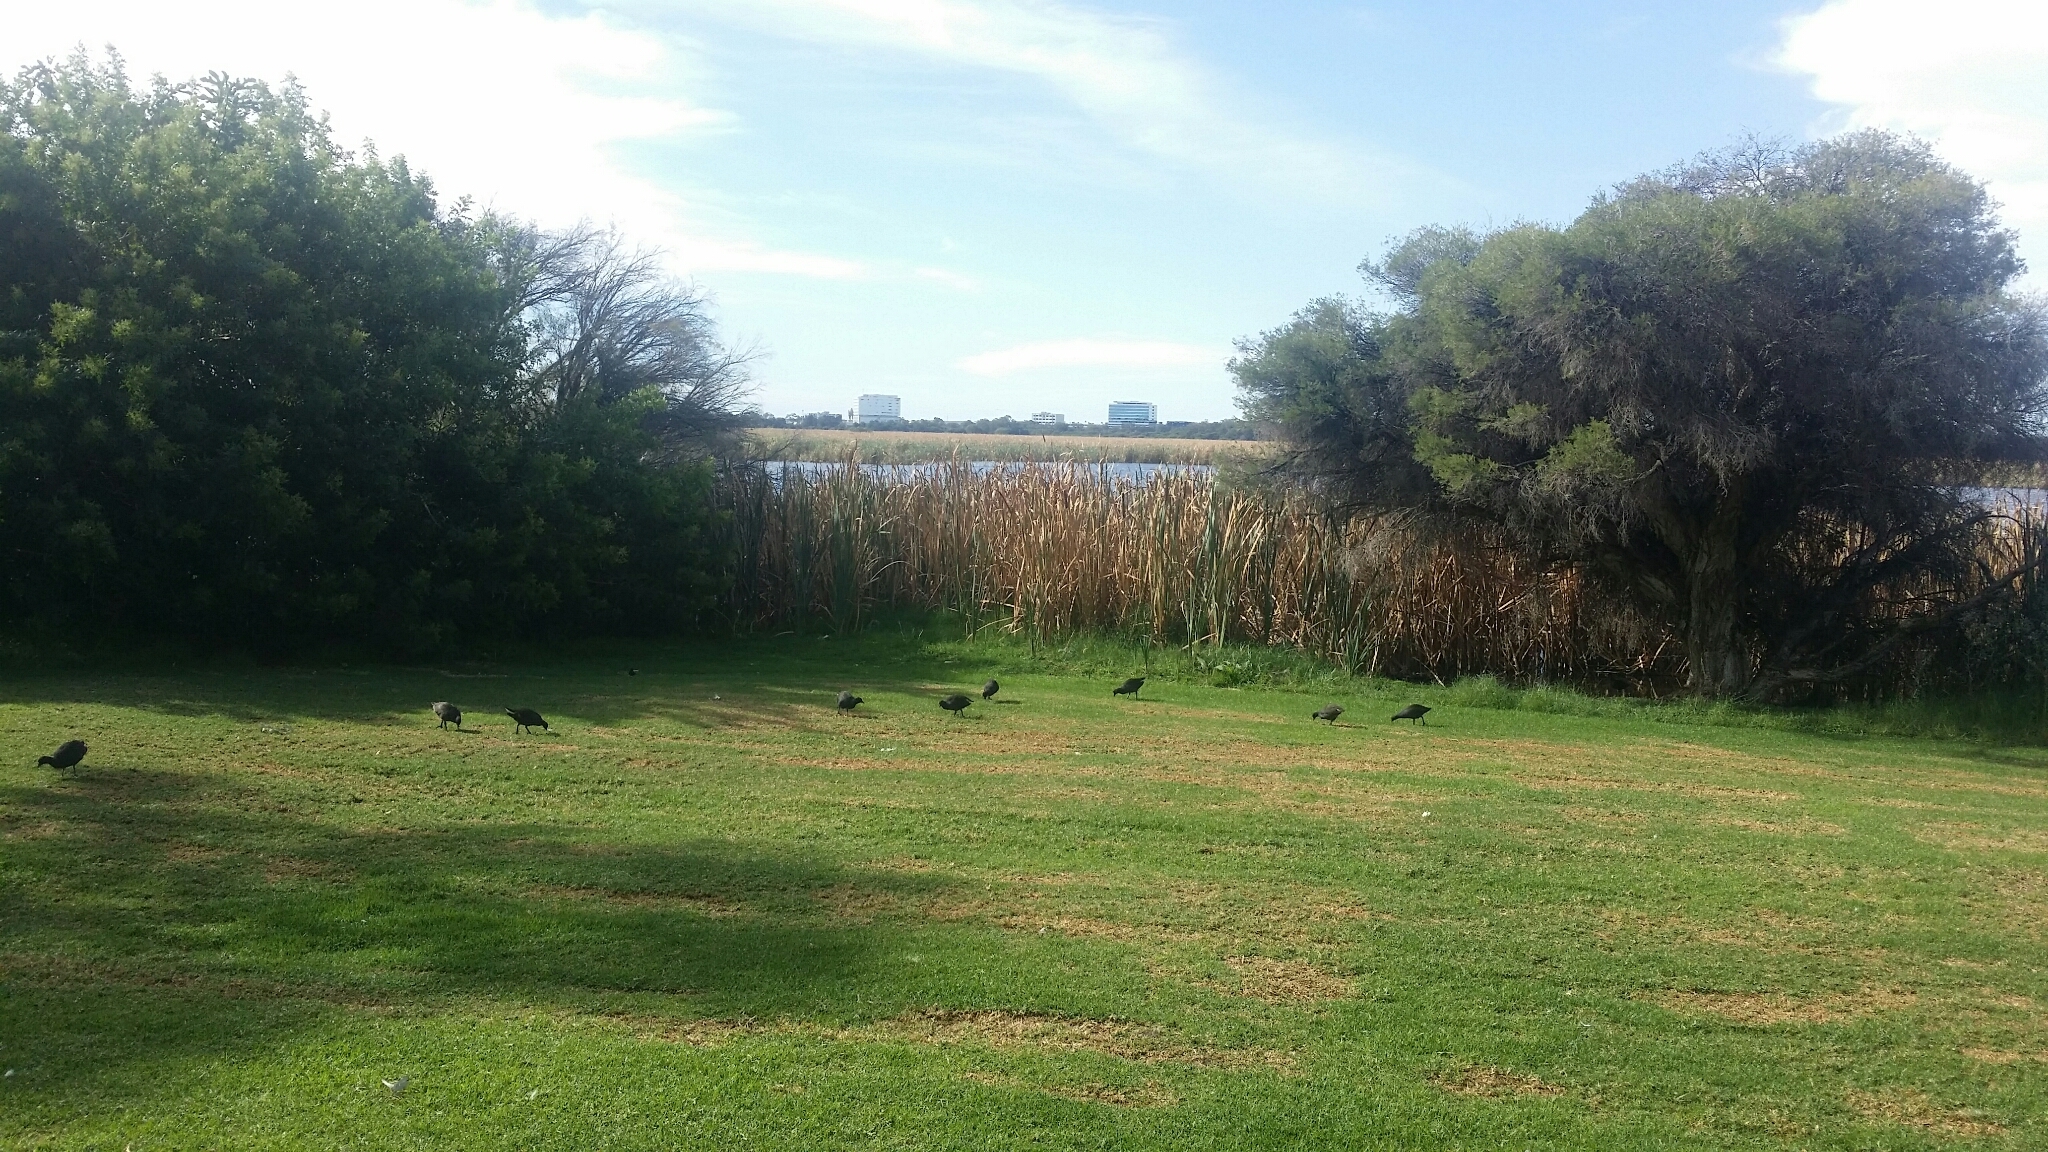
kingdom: Animalia
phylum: Chordata
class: Aves
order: Gruiformes
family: Rallidae
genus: Gallinula
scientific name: Gallinula tenebrosa
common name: Dusky moorhen
